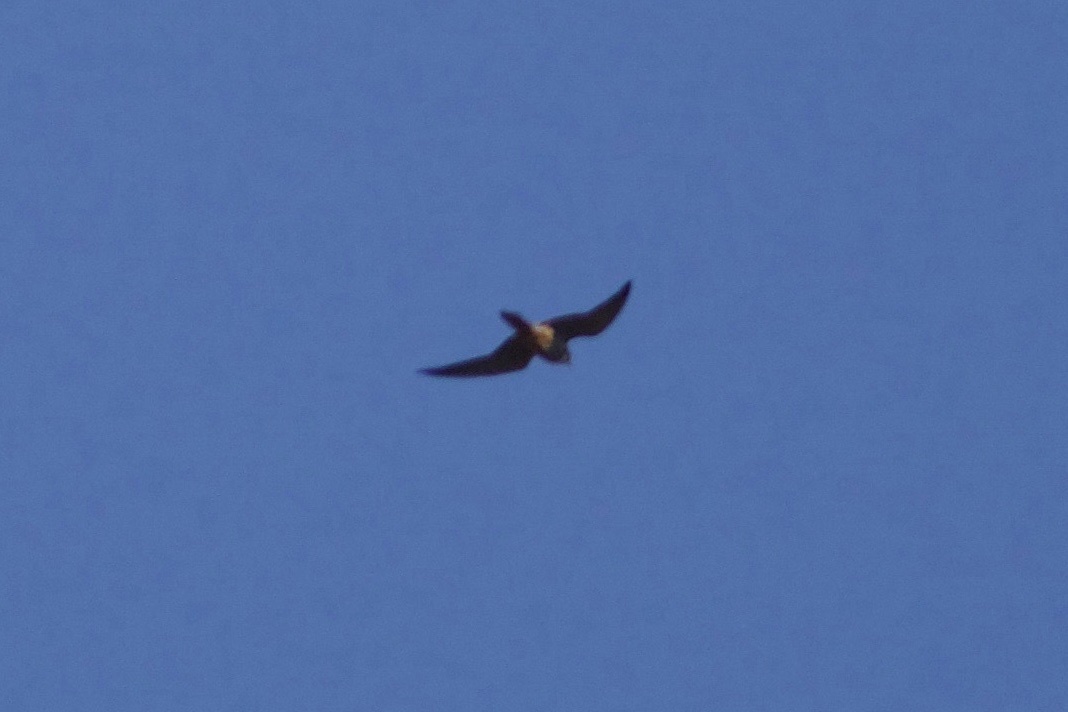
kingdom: Animalia
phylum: Chordata
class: Aves
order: Falconiformes
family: Falconidae
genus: Falco
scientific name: Falco subbuteo
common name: Eurasian hobby
